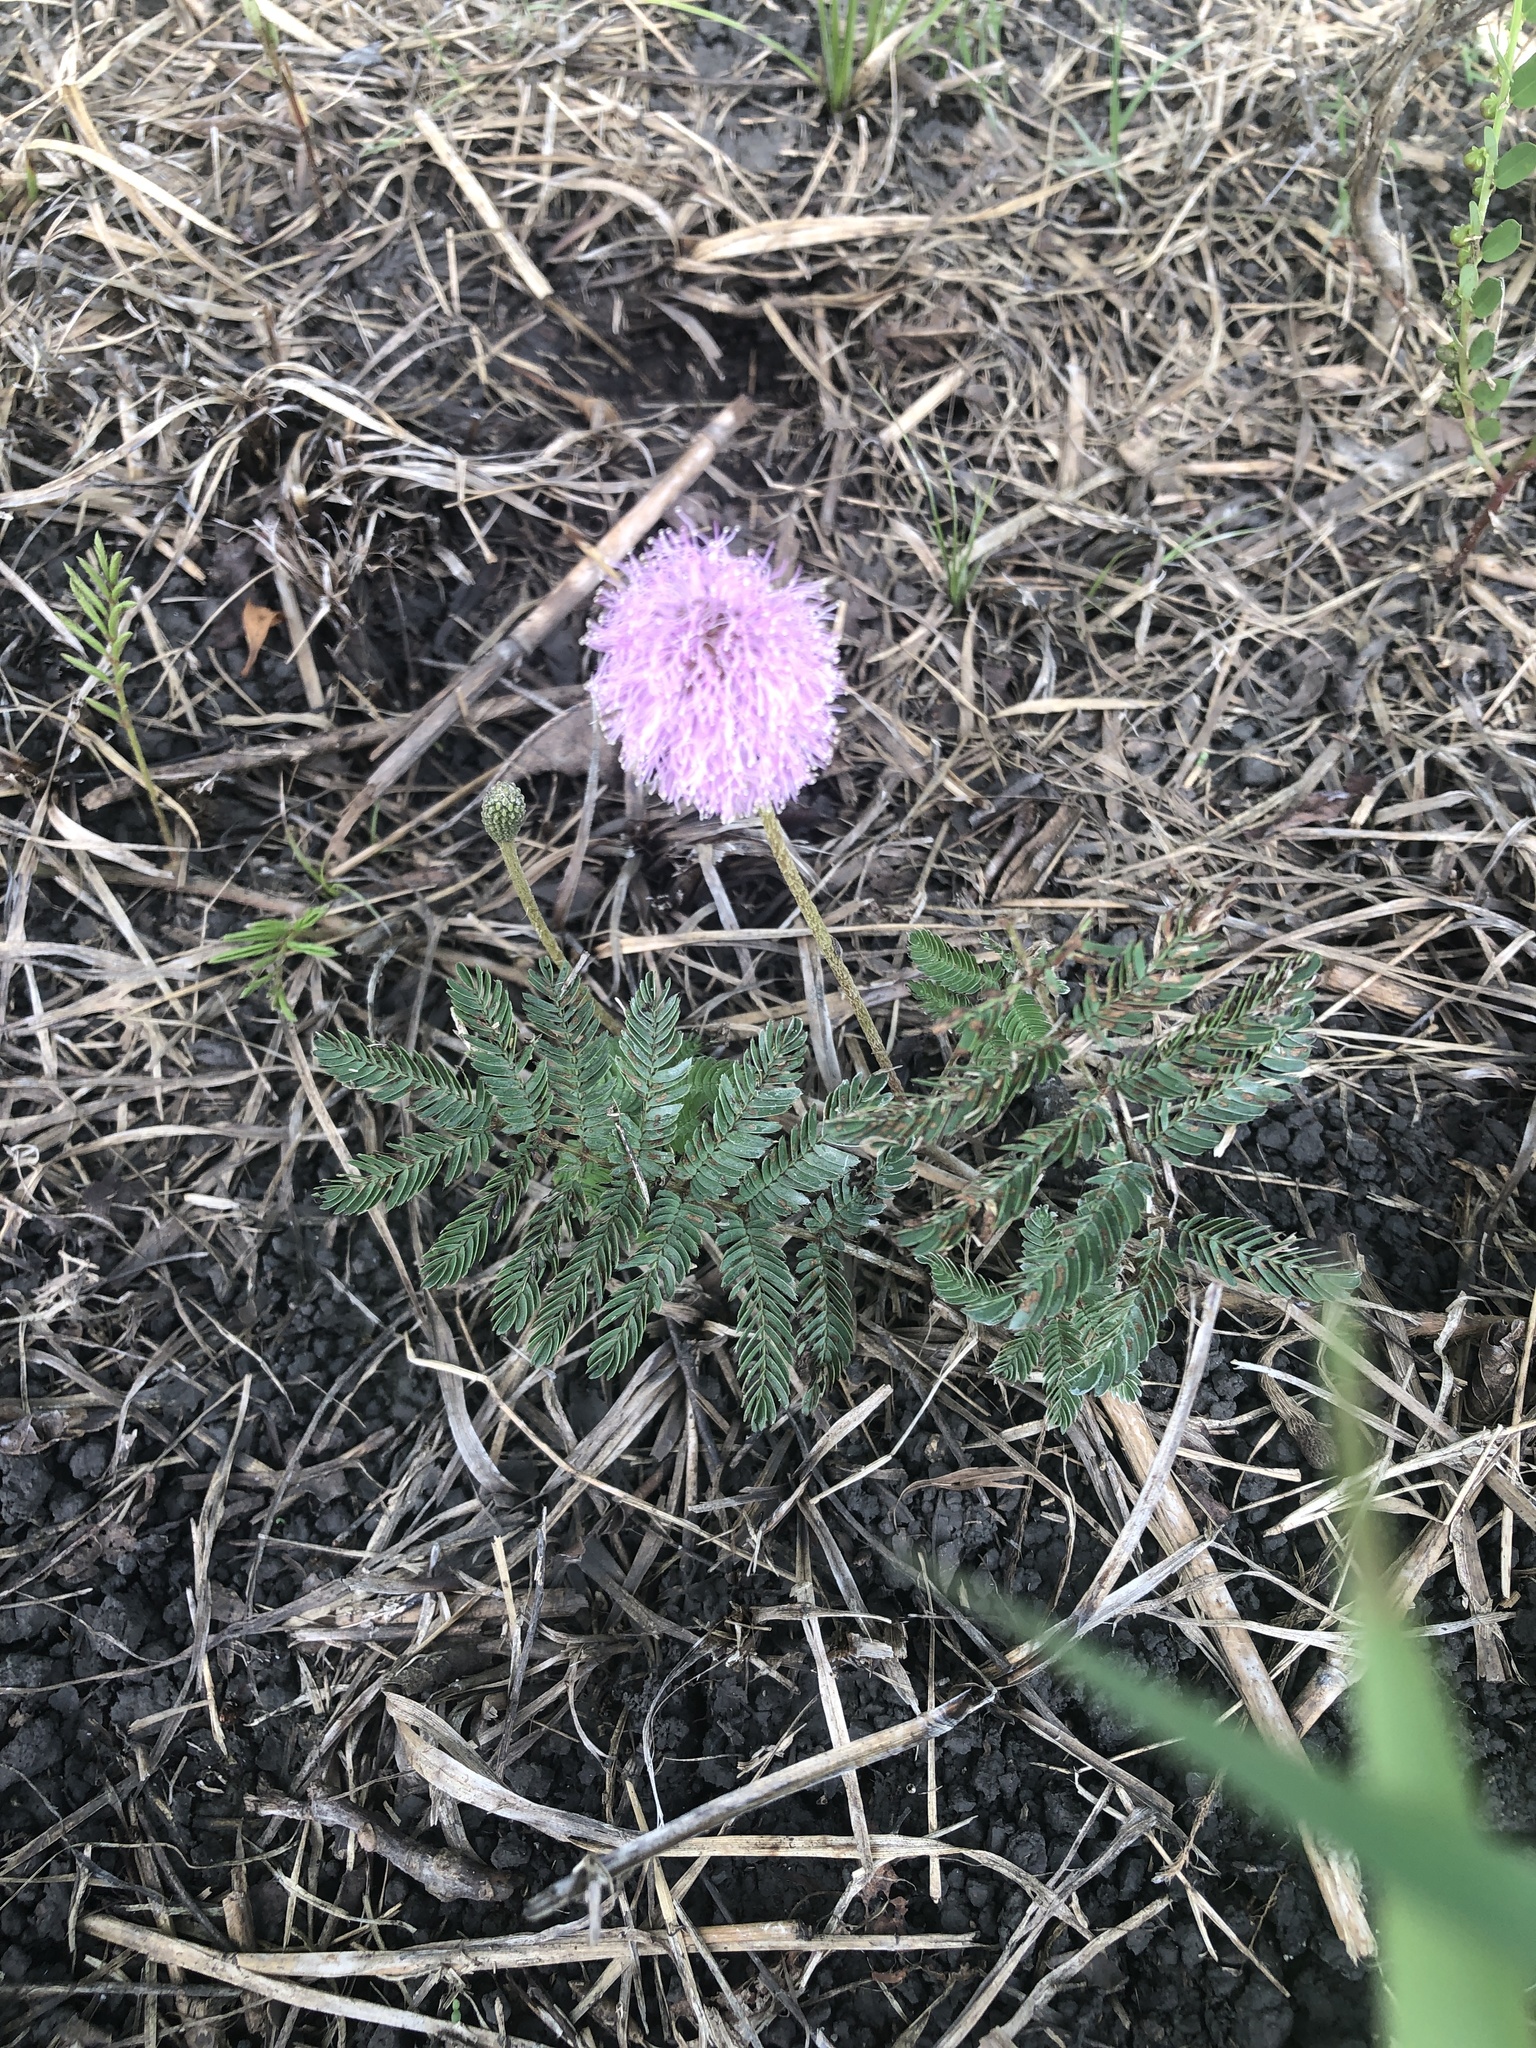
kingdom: Plantae
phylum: Tracheophyta
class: Magnoliopsida
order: Fabales
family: Fabaceae
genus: Mimosa
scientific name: Mimosa strigillosa
